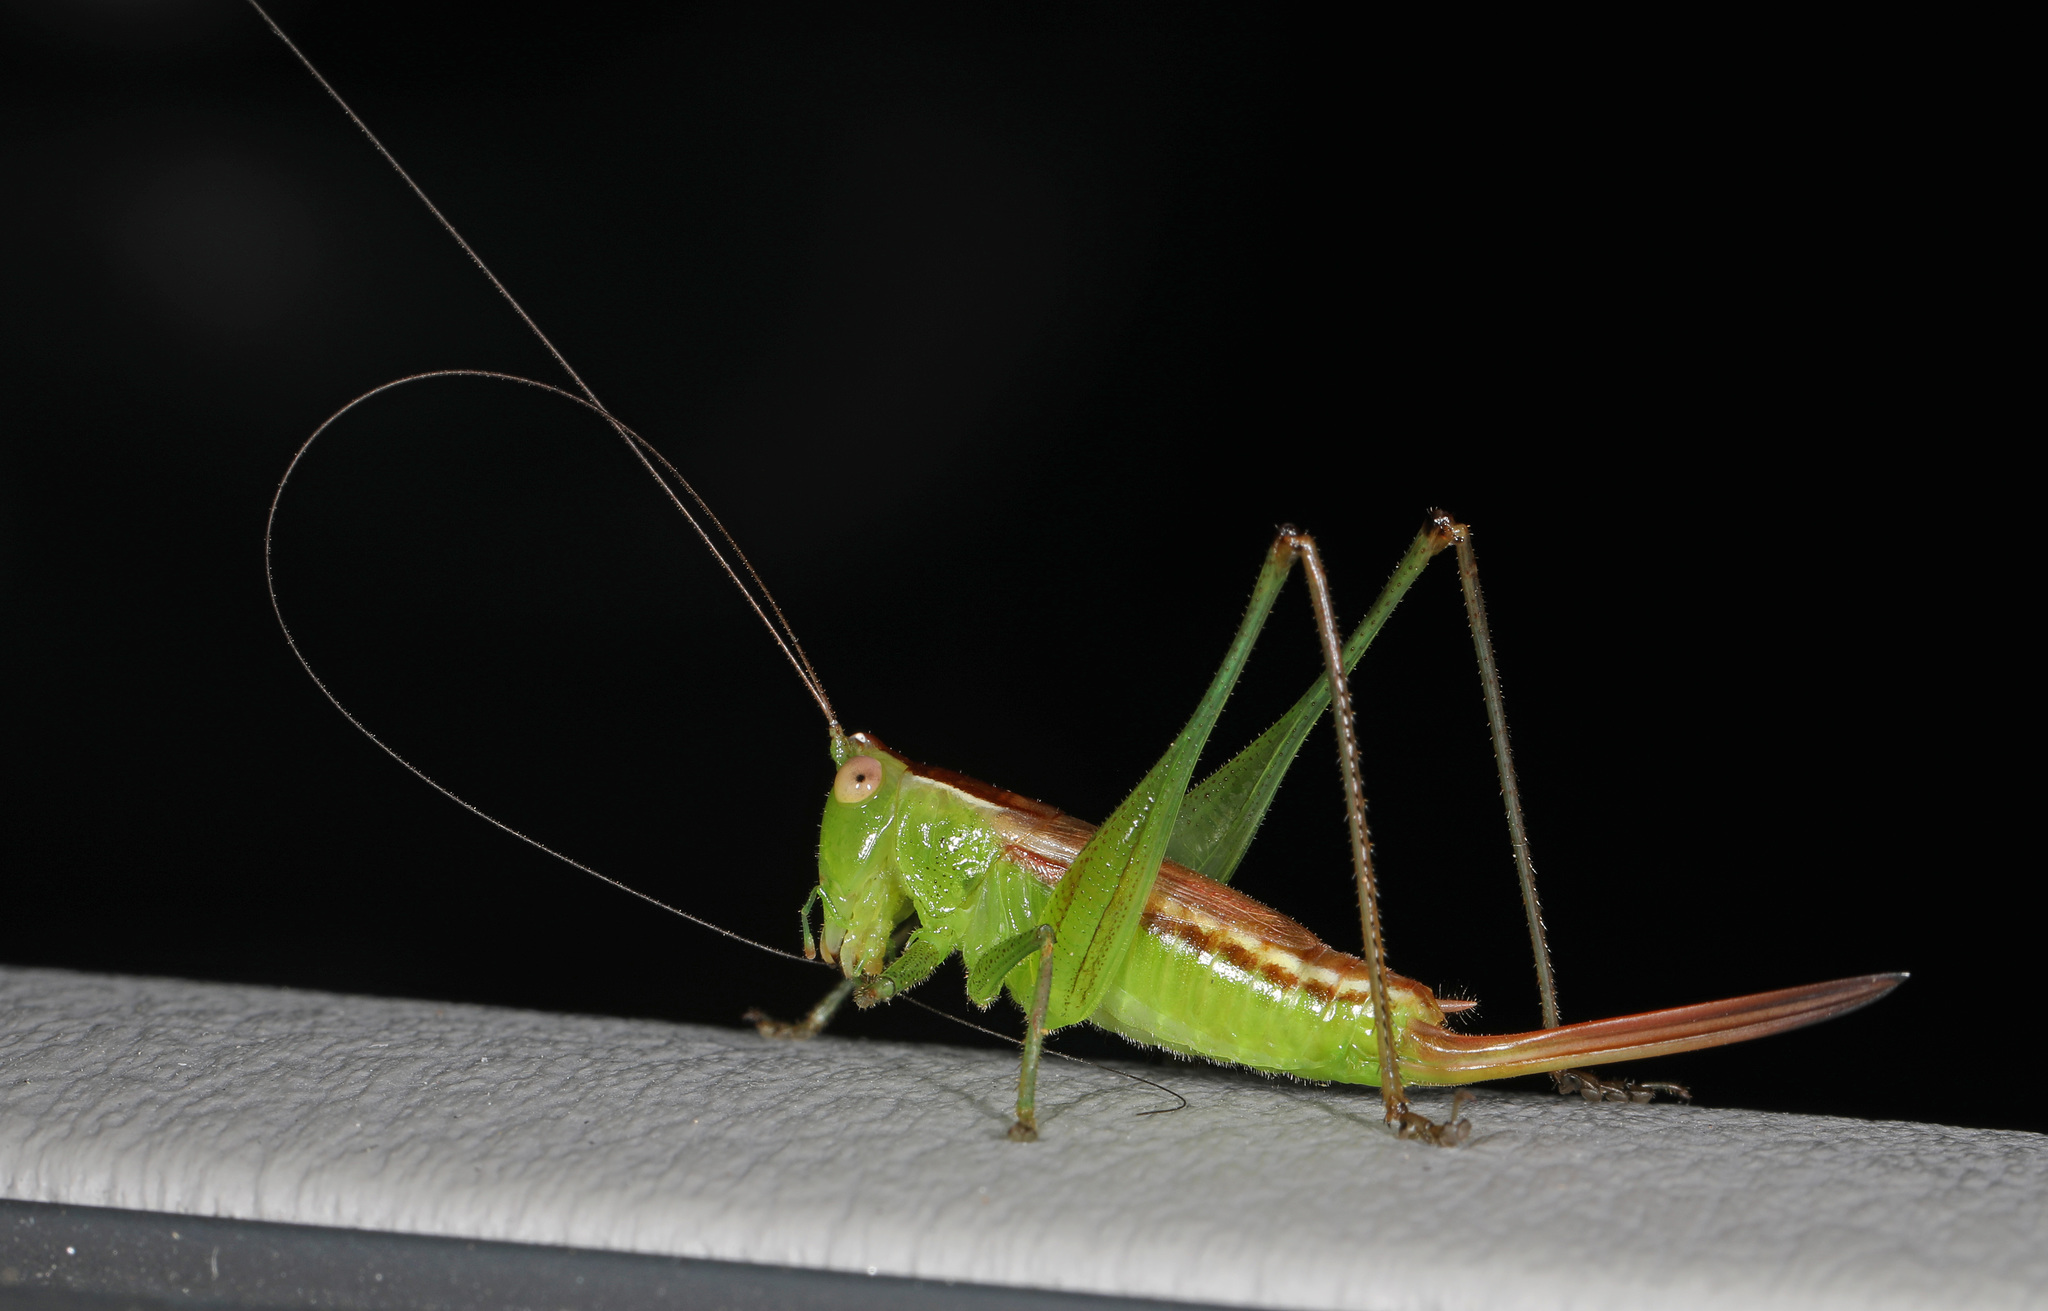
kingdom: Animalia
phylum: Arthropoda
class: Insecta
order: Orthoptera
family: Tettigoniidae
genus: Conocephalus
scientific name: Conocephalus brevipennis
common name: Short-winged meadow katydid
